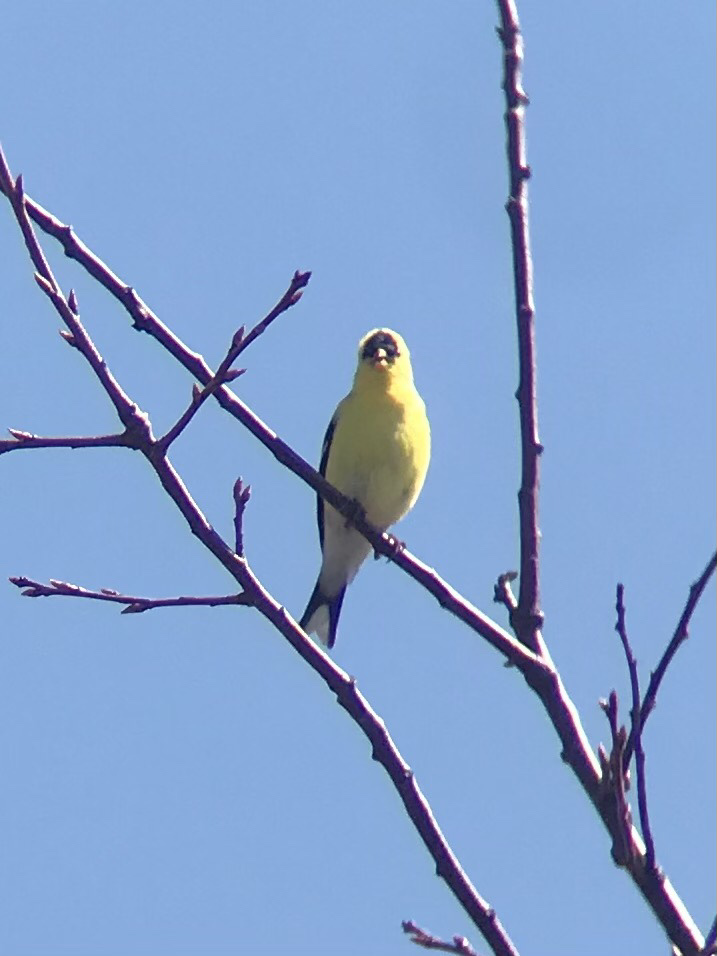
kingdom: Animalia
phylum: Chordata
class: Aves
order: Passeriformes
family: Fringillidae
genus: Spinus
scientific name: Spinus tristis
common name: American goldfinch
